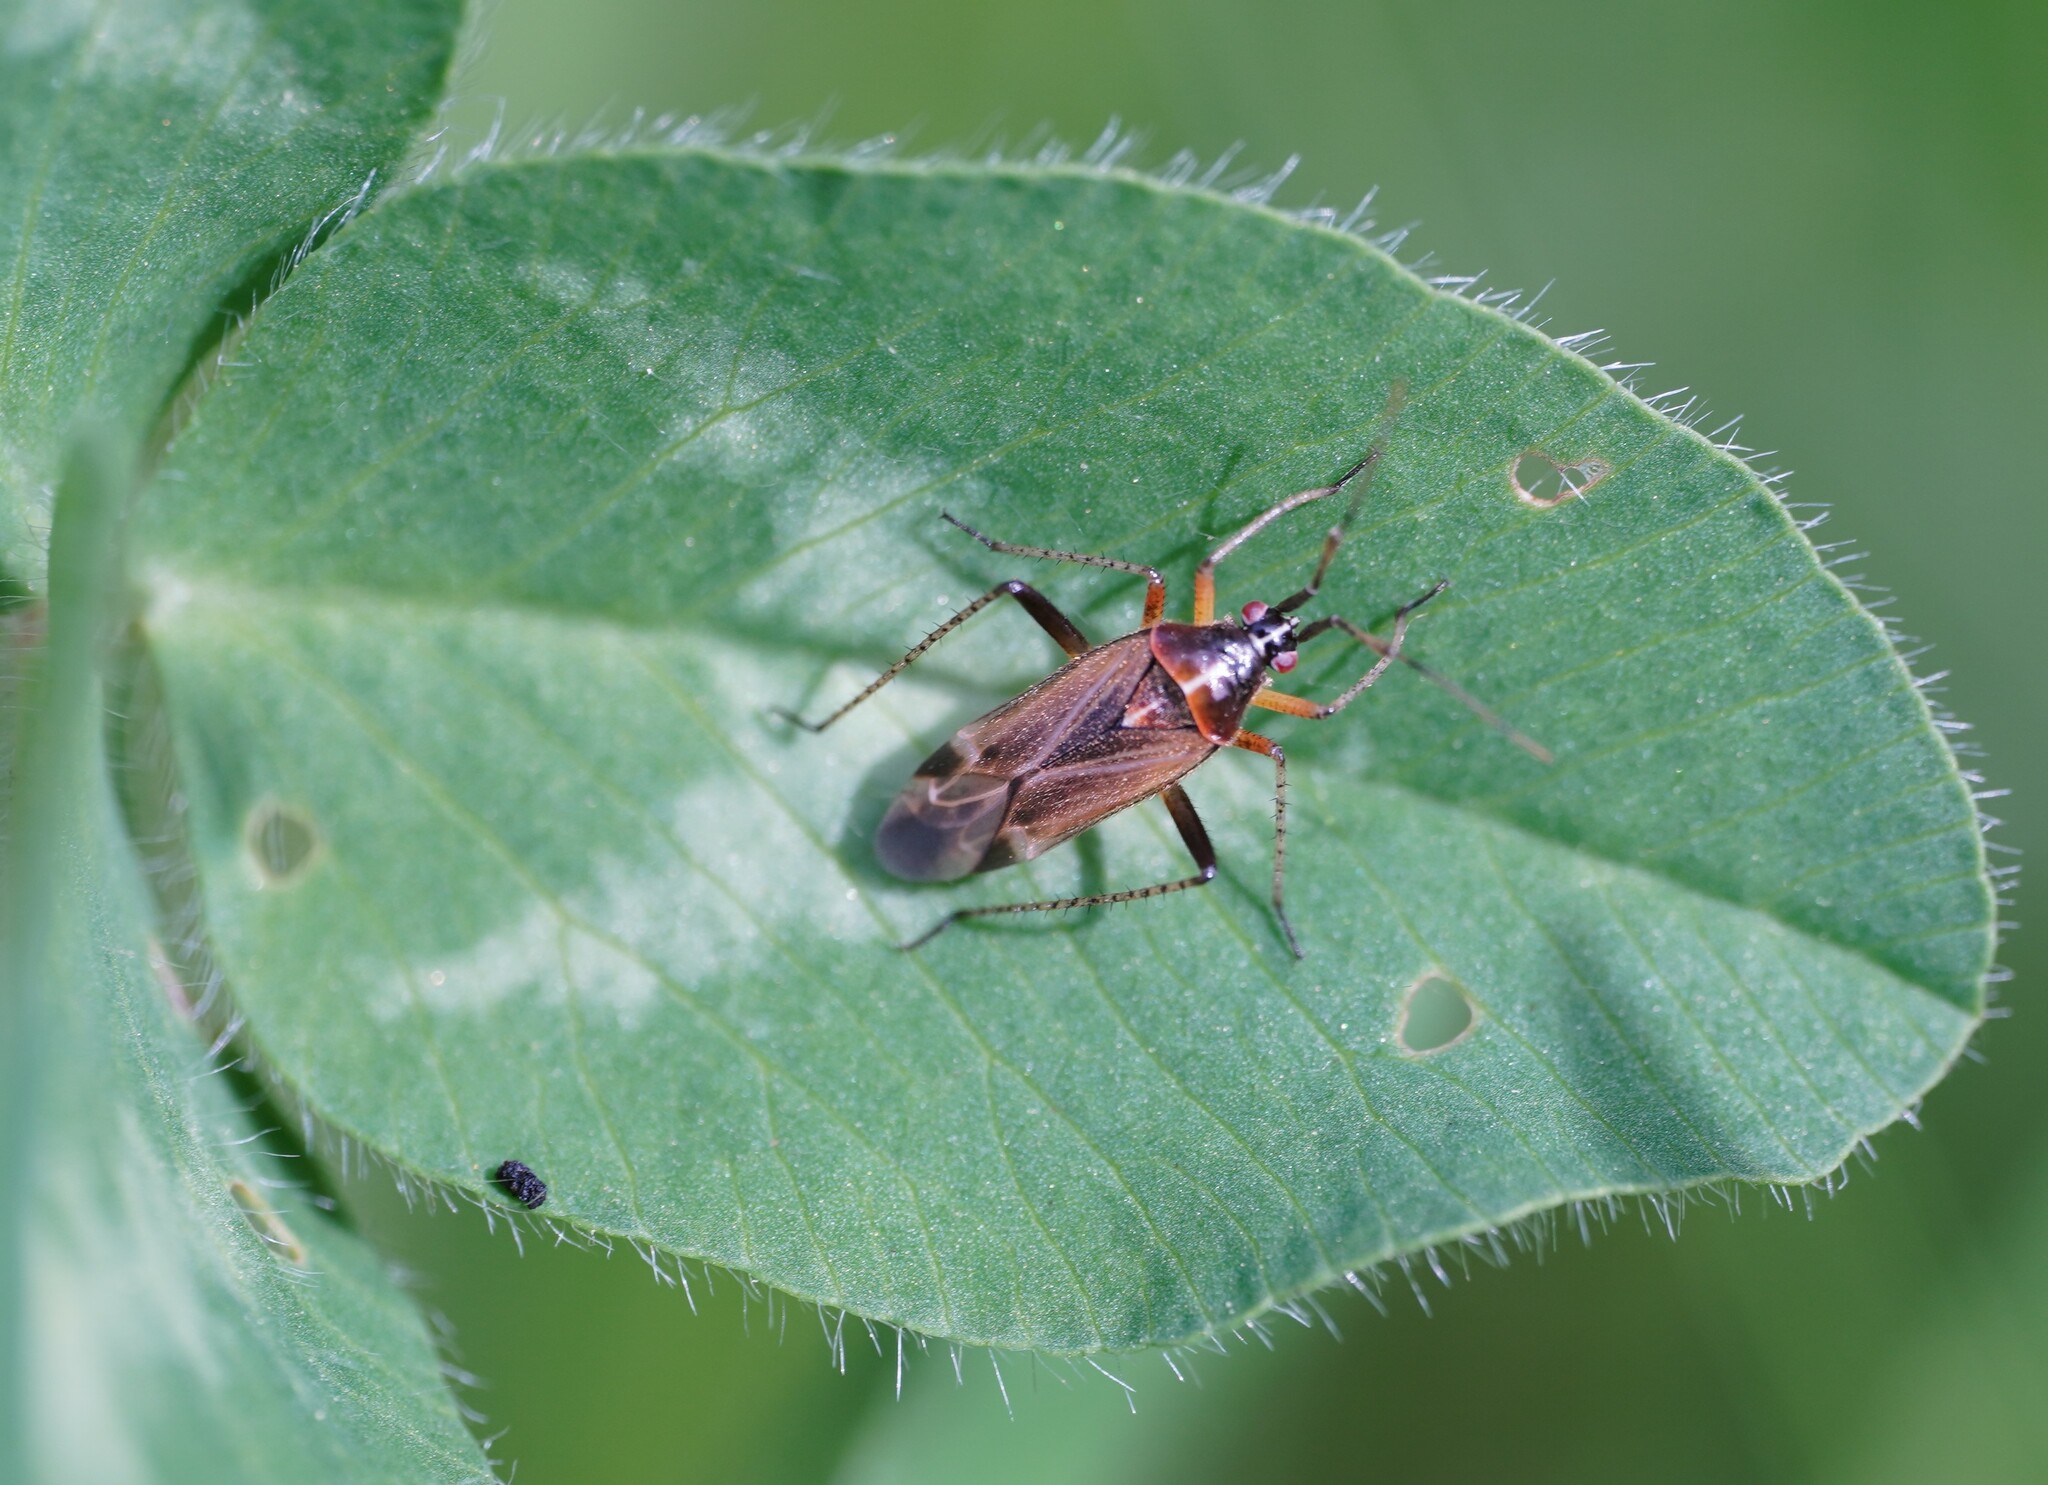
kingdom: Animalia
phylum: Arthropoda
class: Insecta
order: Hemiptera
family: Miridae
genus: Harpocera
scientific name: Harpocera thoracica
